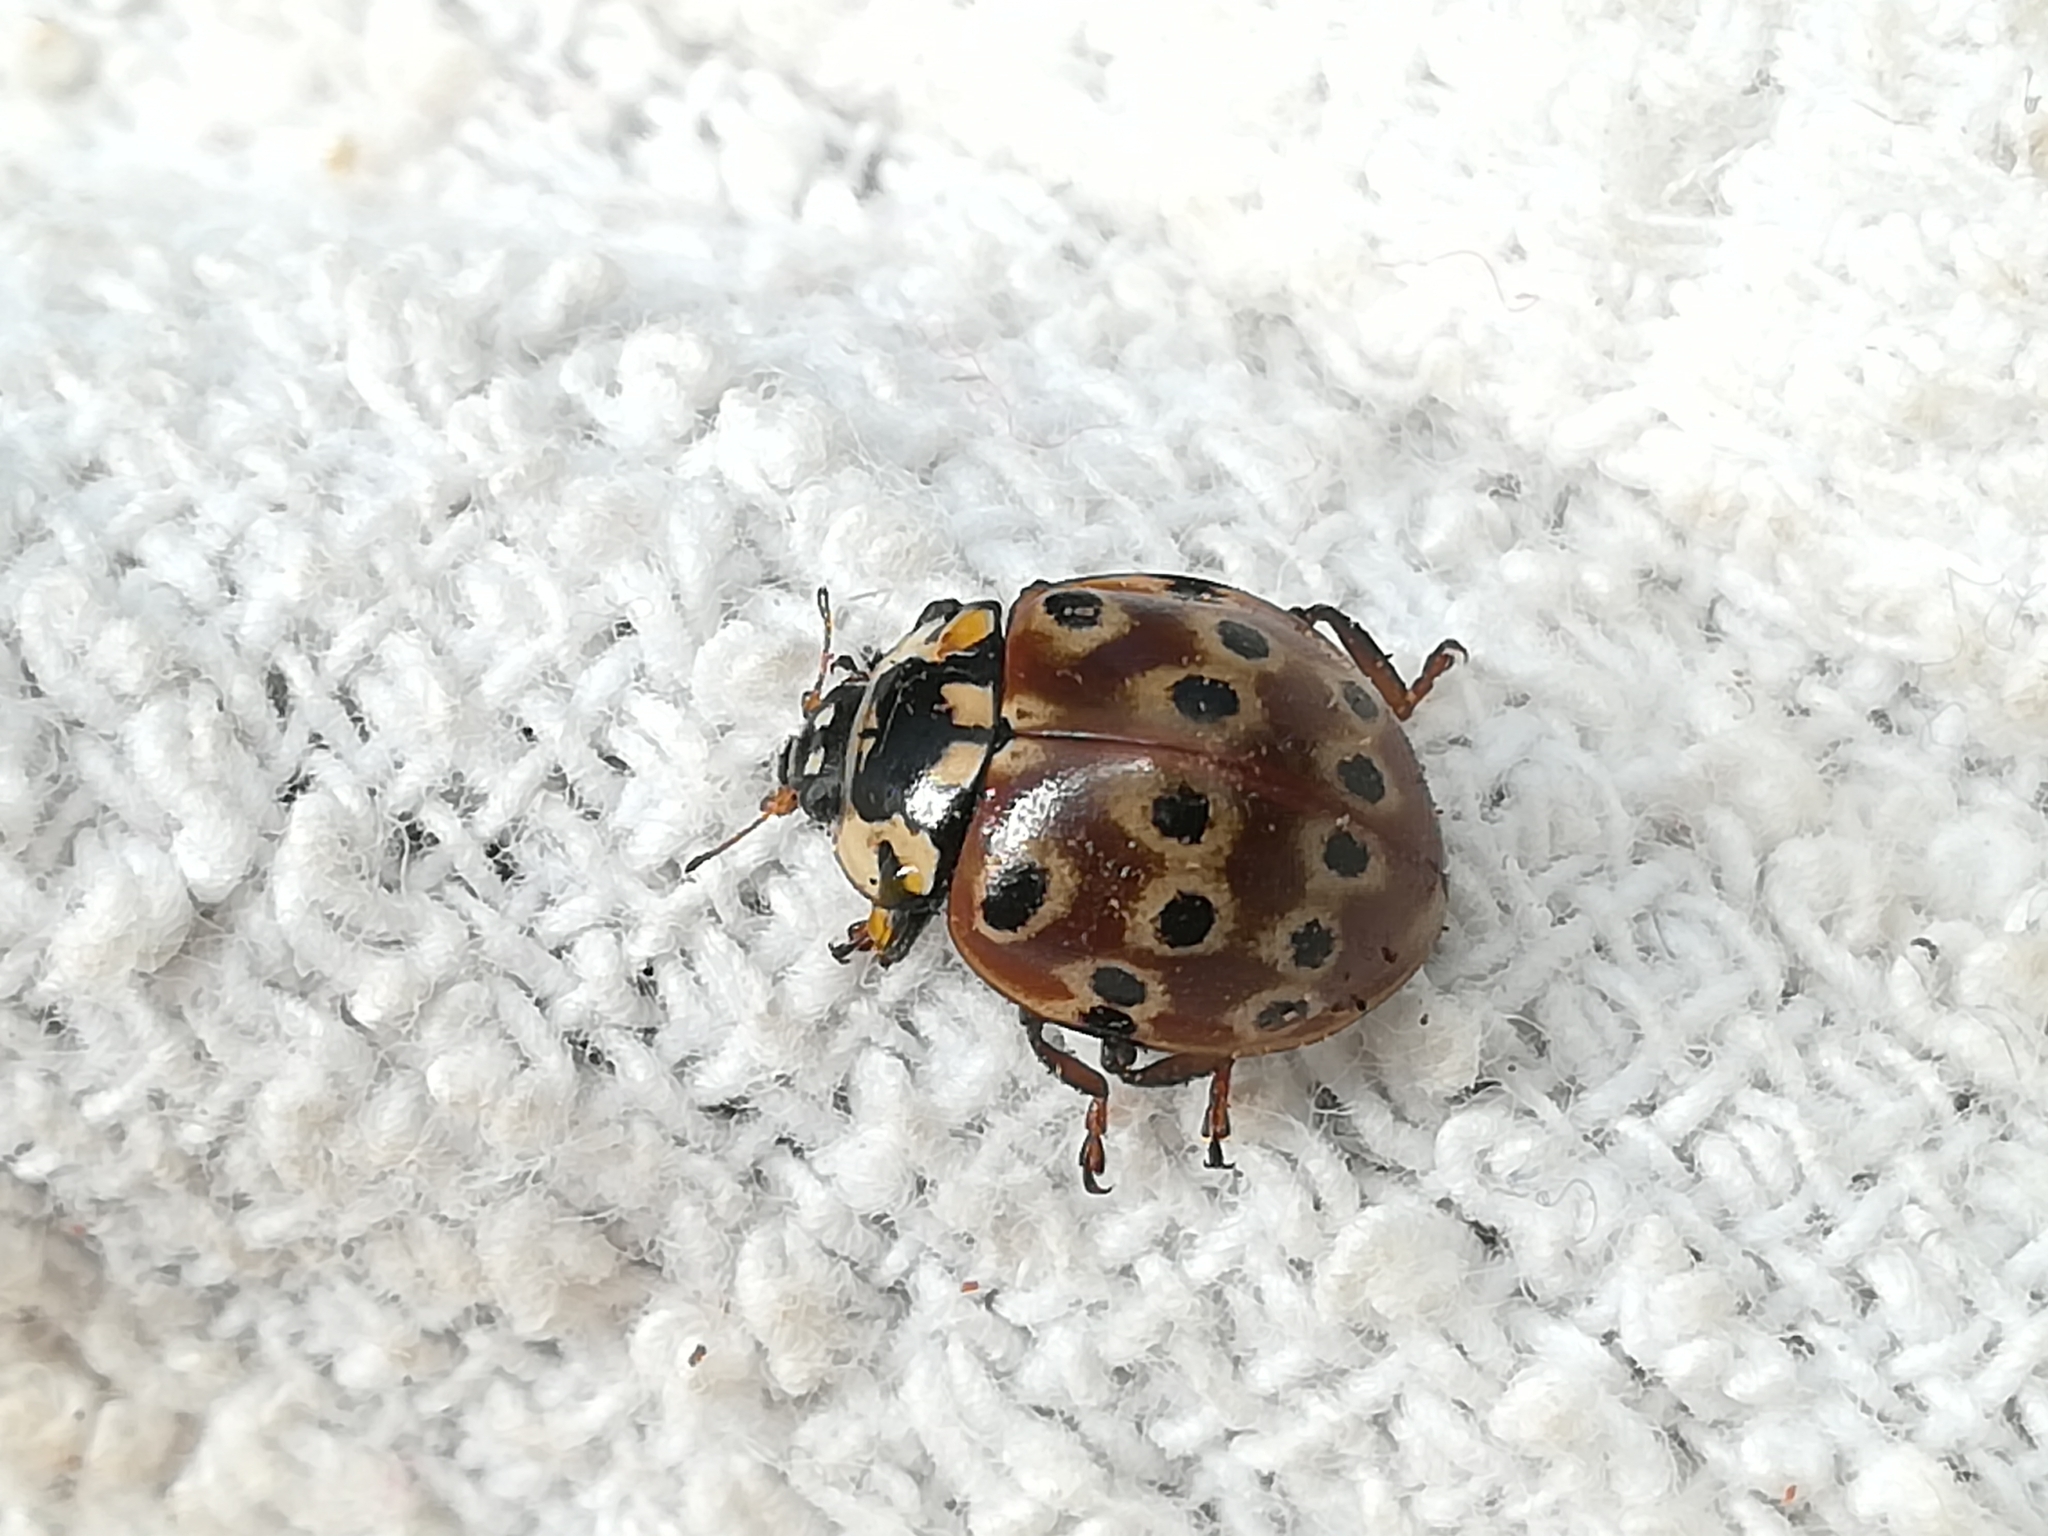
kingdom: Animalia
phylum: Arthropoda
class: Insecta
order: Coleoptera
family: Coccinellidae
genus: Anatis
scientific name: Anatis mali
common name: Eye-spotted lady beetle
